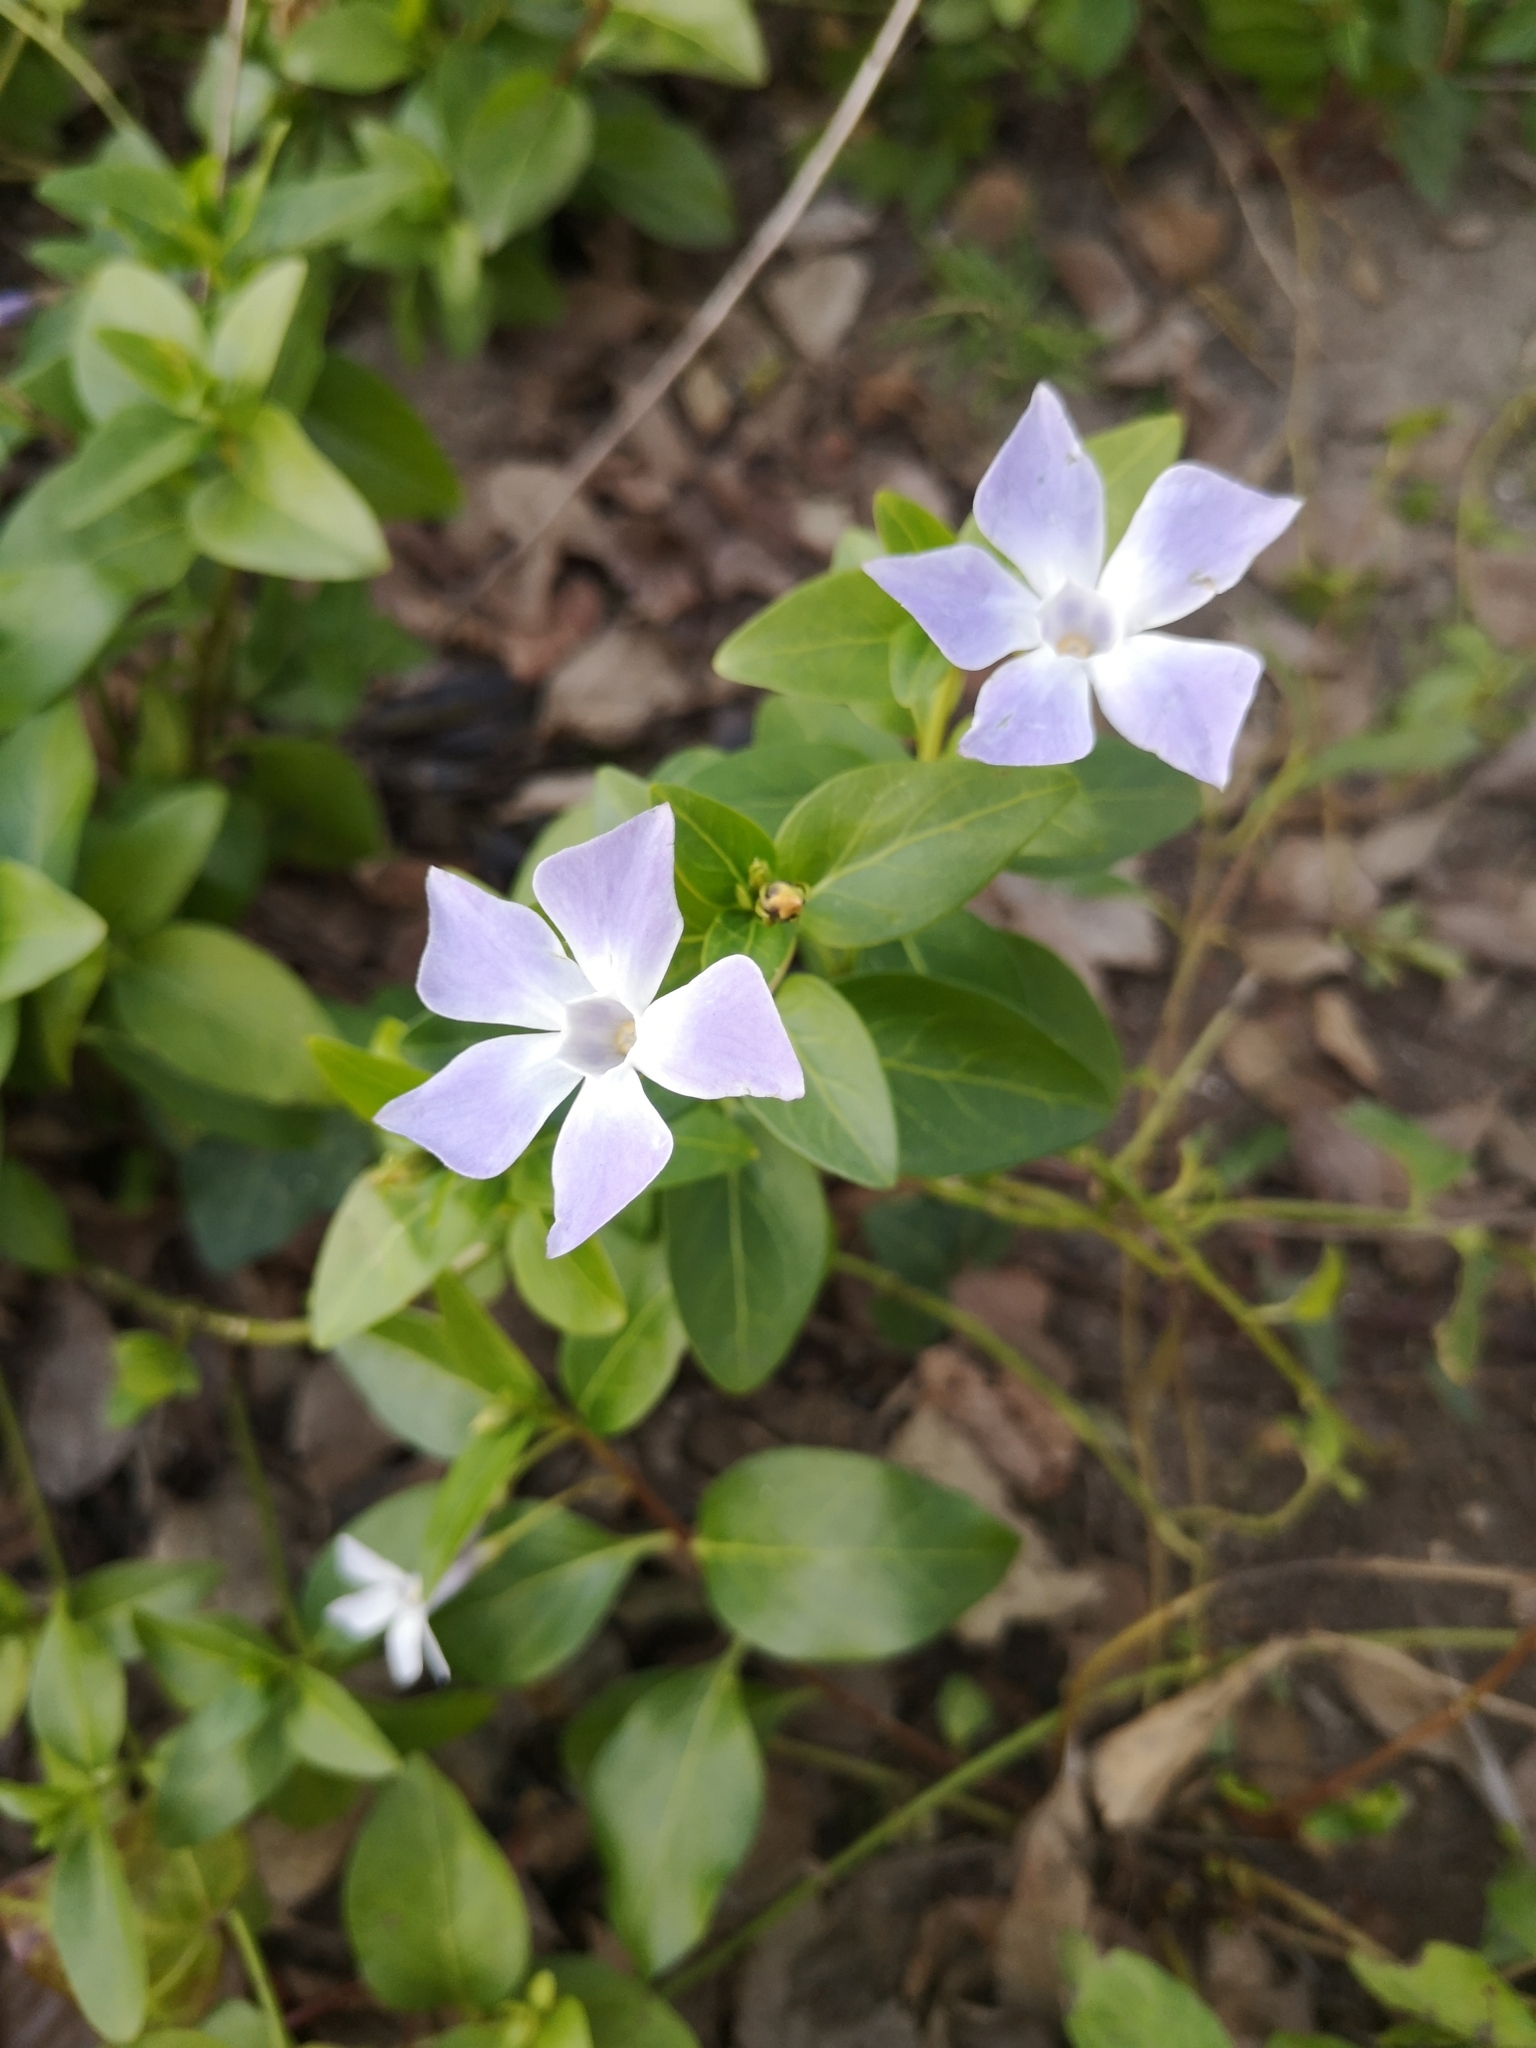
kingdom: Plantae
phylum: Tracheophyta
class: Magnoliopsida
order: Gentianales
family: Apocynaceae
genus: Vinca
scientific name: Vinca difformis
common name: Intermediate periwinkle
